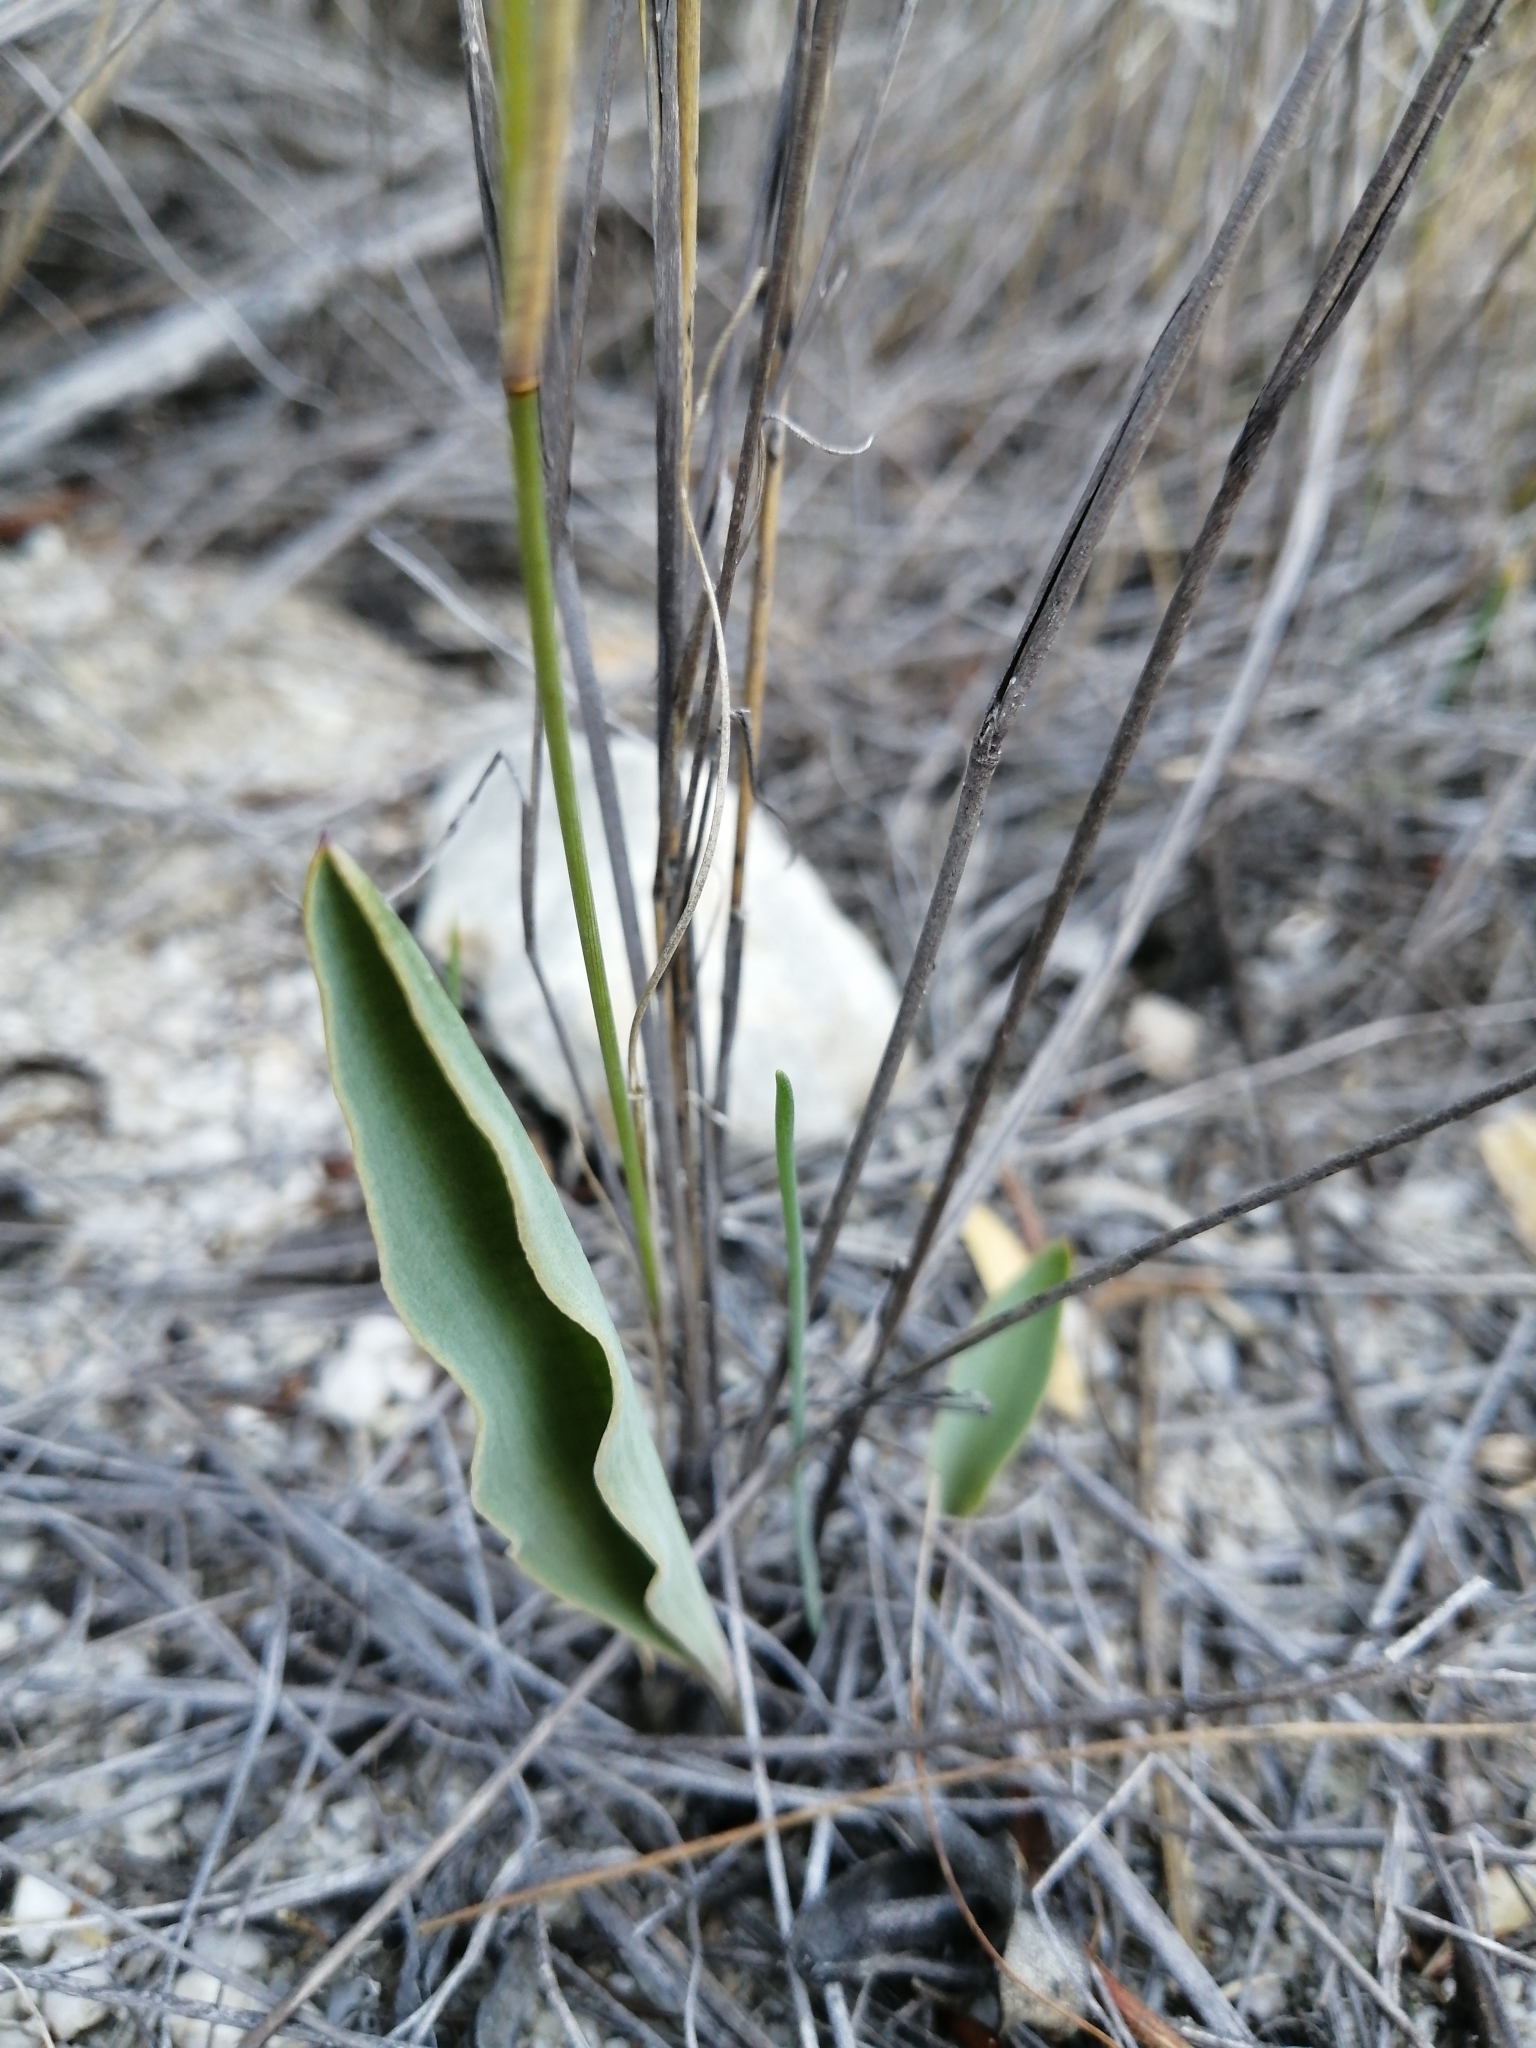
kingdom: Plantae
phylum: Tracheophyta
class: Magnoliopsida
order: Malpighiales
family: Euphorbiaceae
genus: Euphorbia
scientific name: Euphorbia tuberosa
